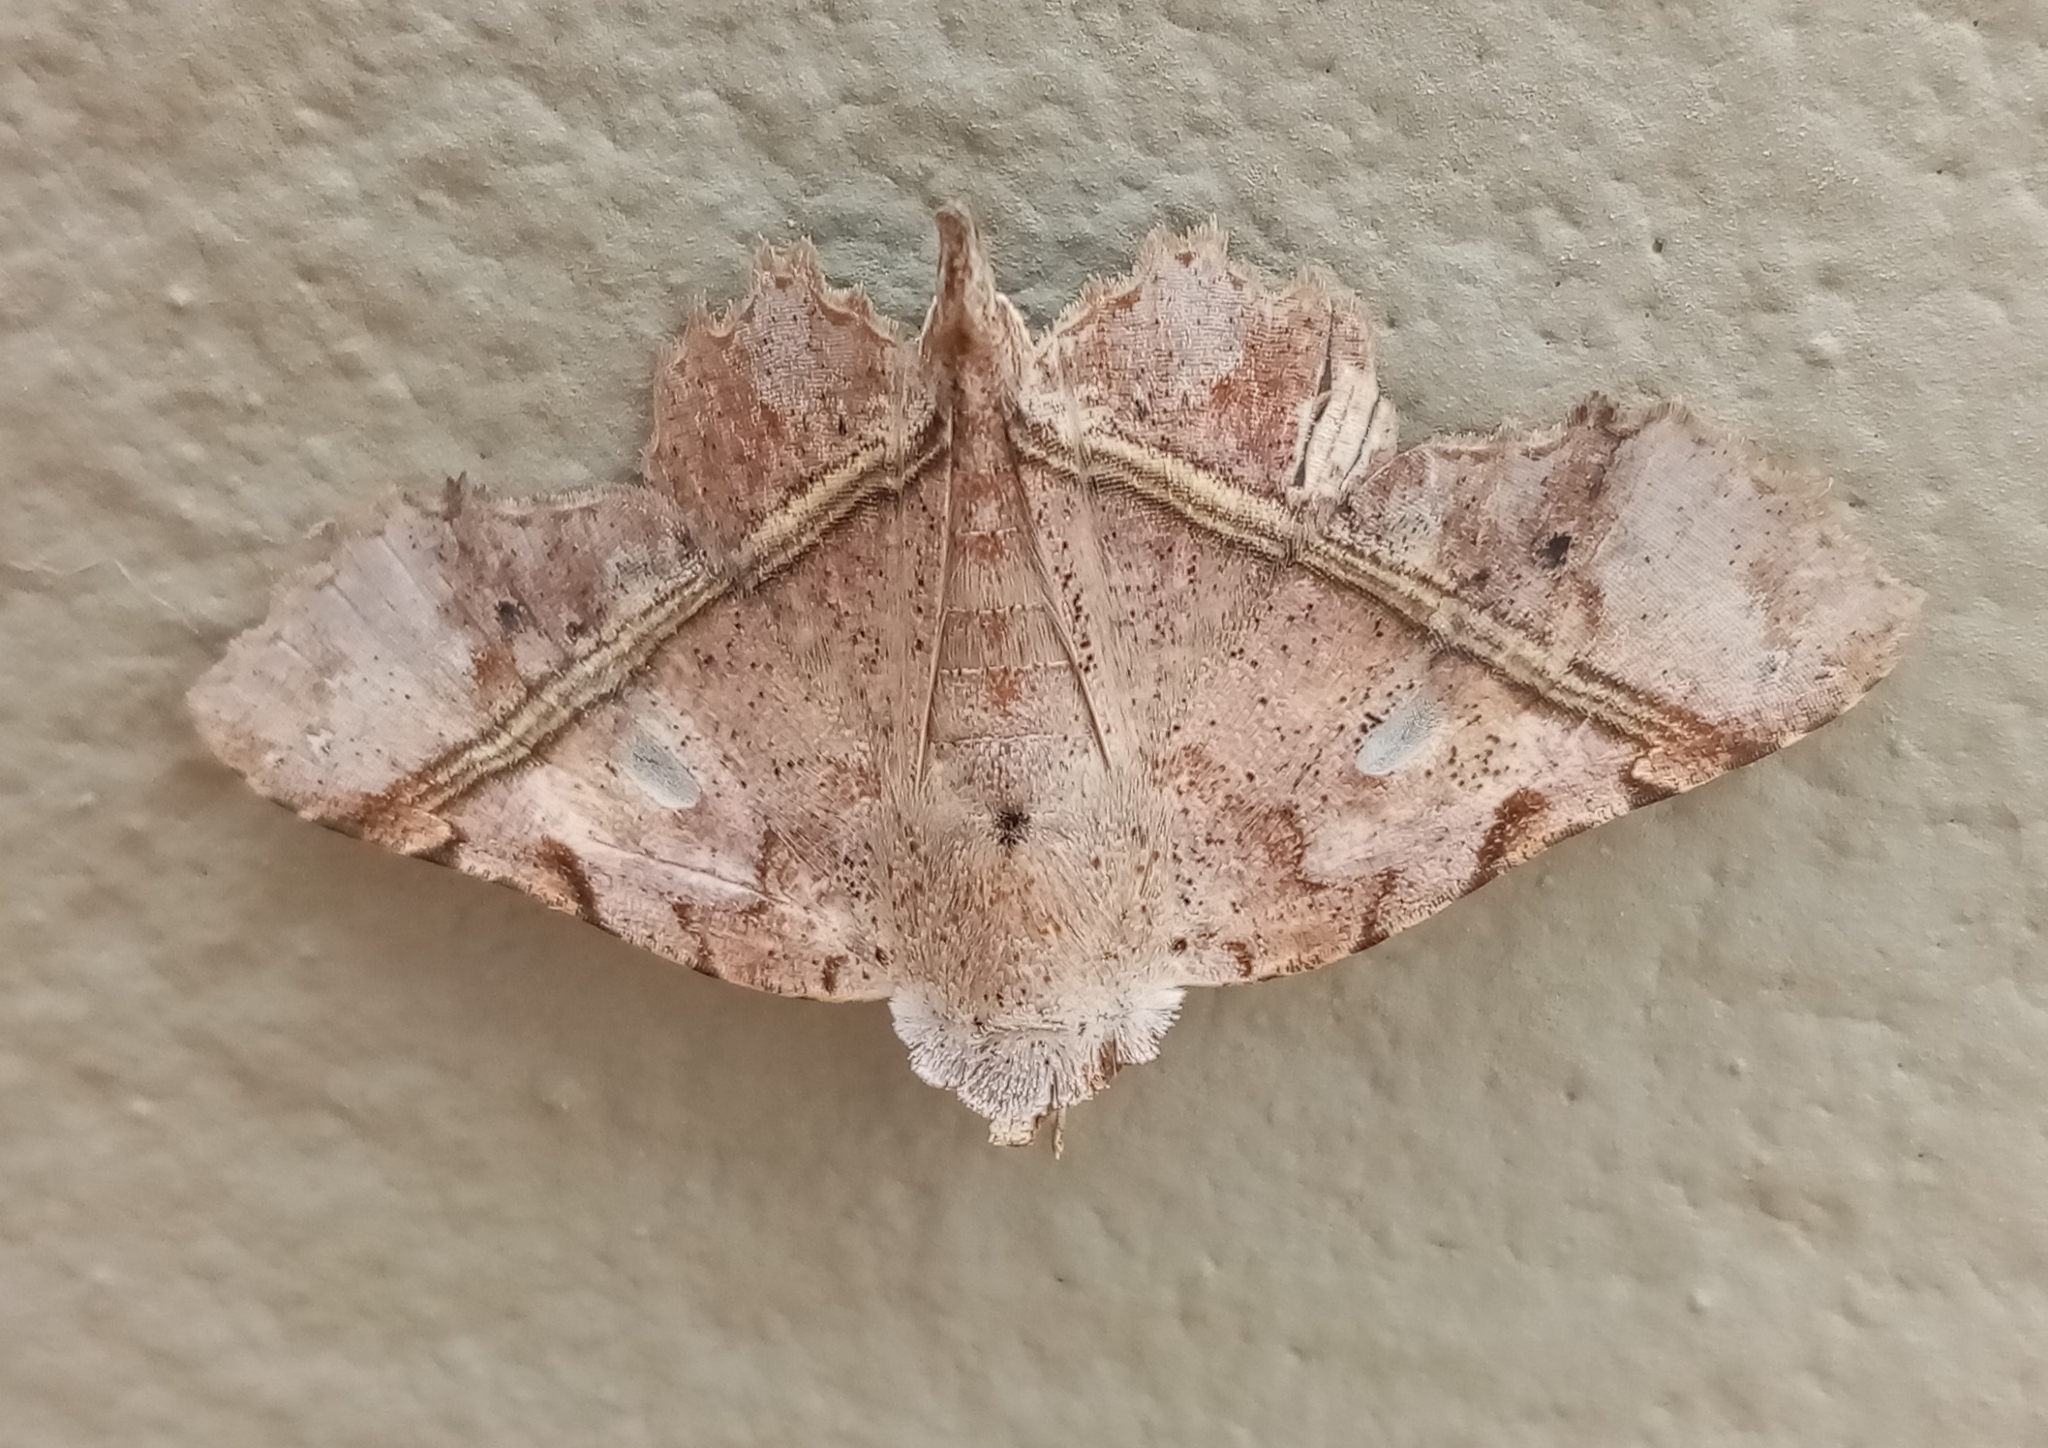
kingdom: Animalia
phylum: Arthropoda
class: Insecta
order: Lepidoptera
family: Erebidae
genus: Gonuris
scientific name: Gonuris flaminia
